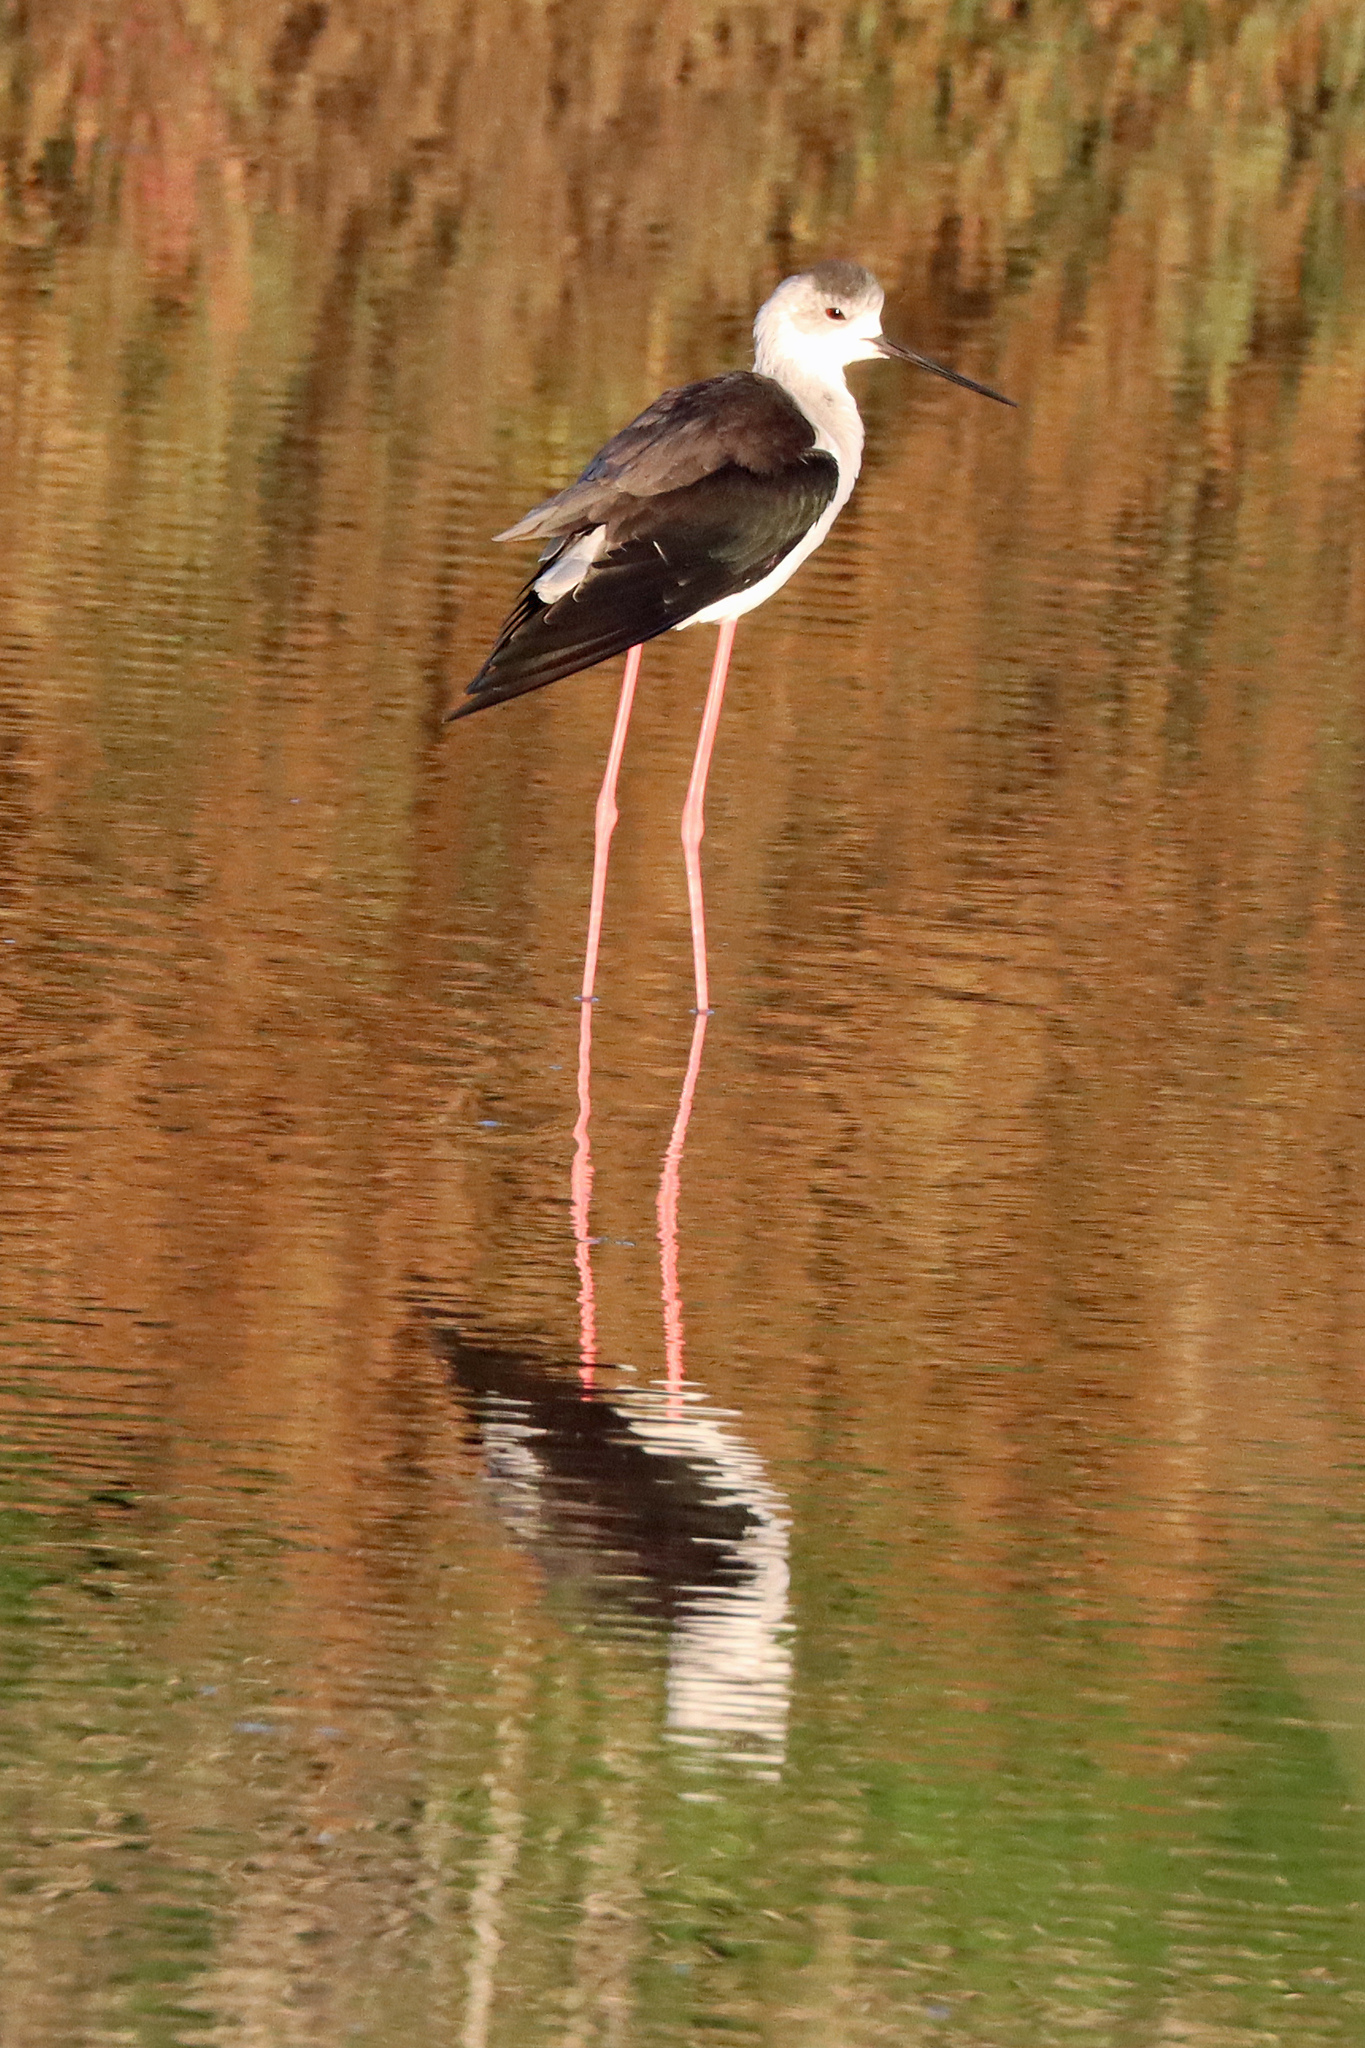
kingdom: Animalia
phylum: Chordata
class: Aves
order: Charadriiformes
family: Recurvirostridae
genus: Himantopus
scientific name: Himantopus himantopus
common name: Black-winged stilt
